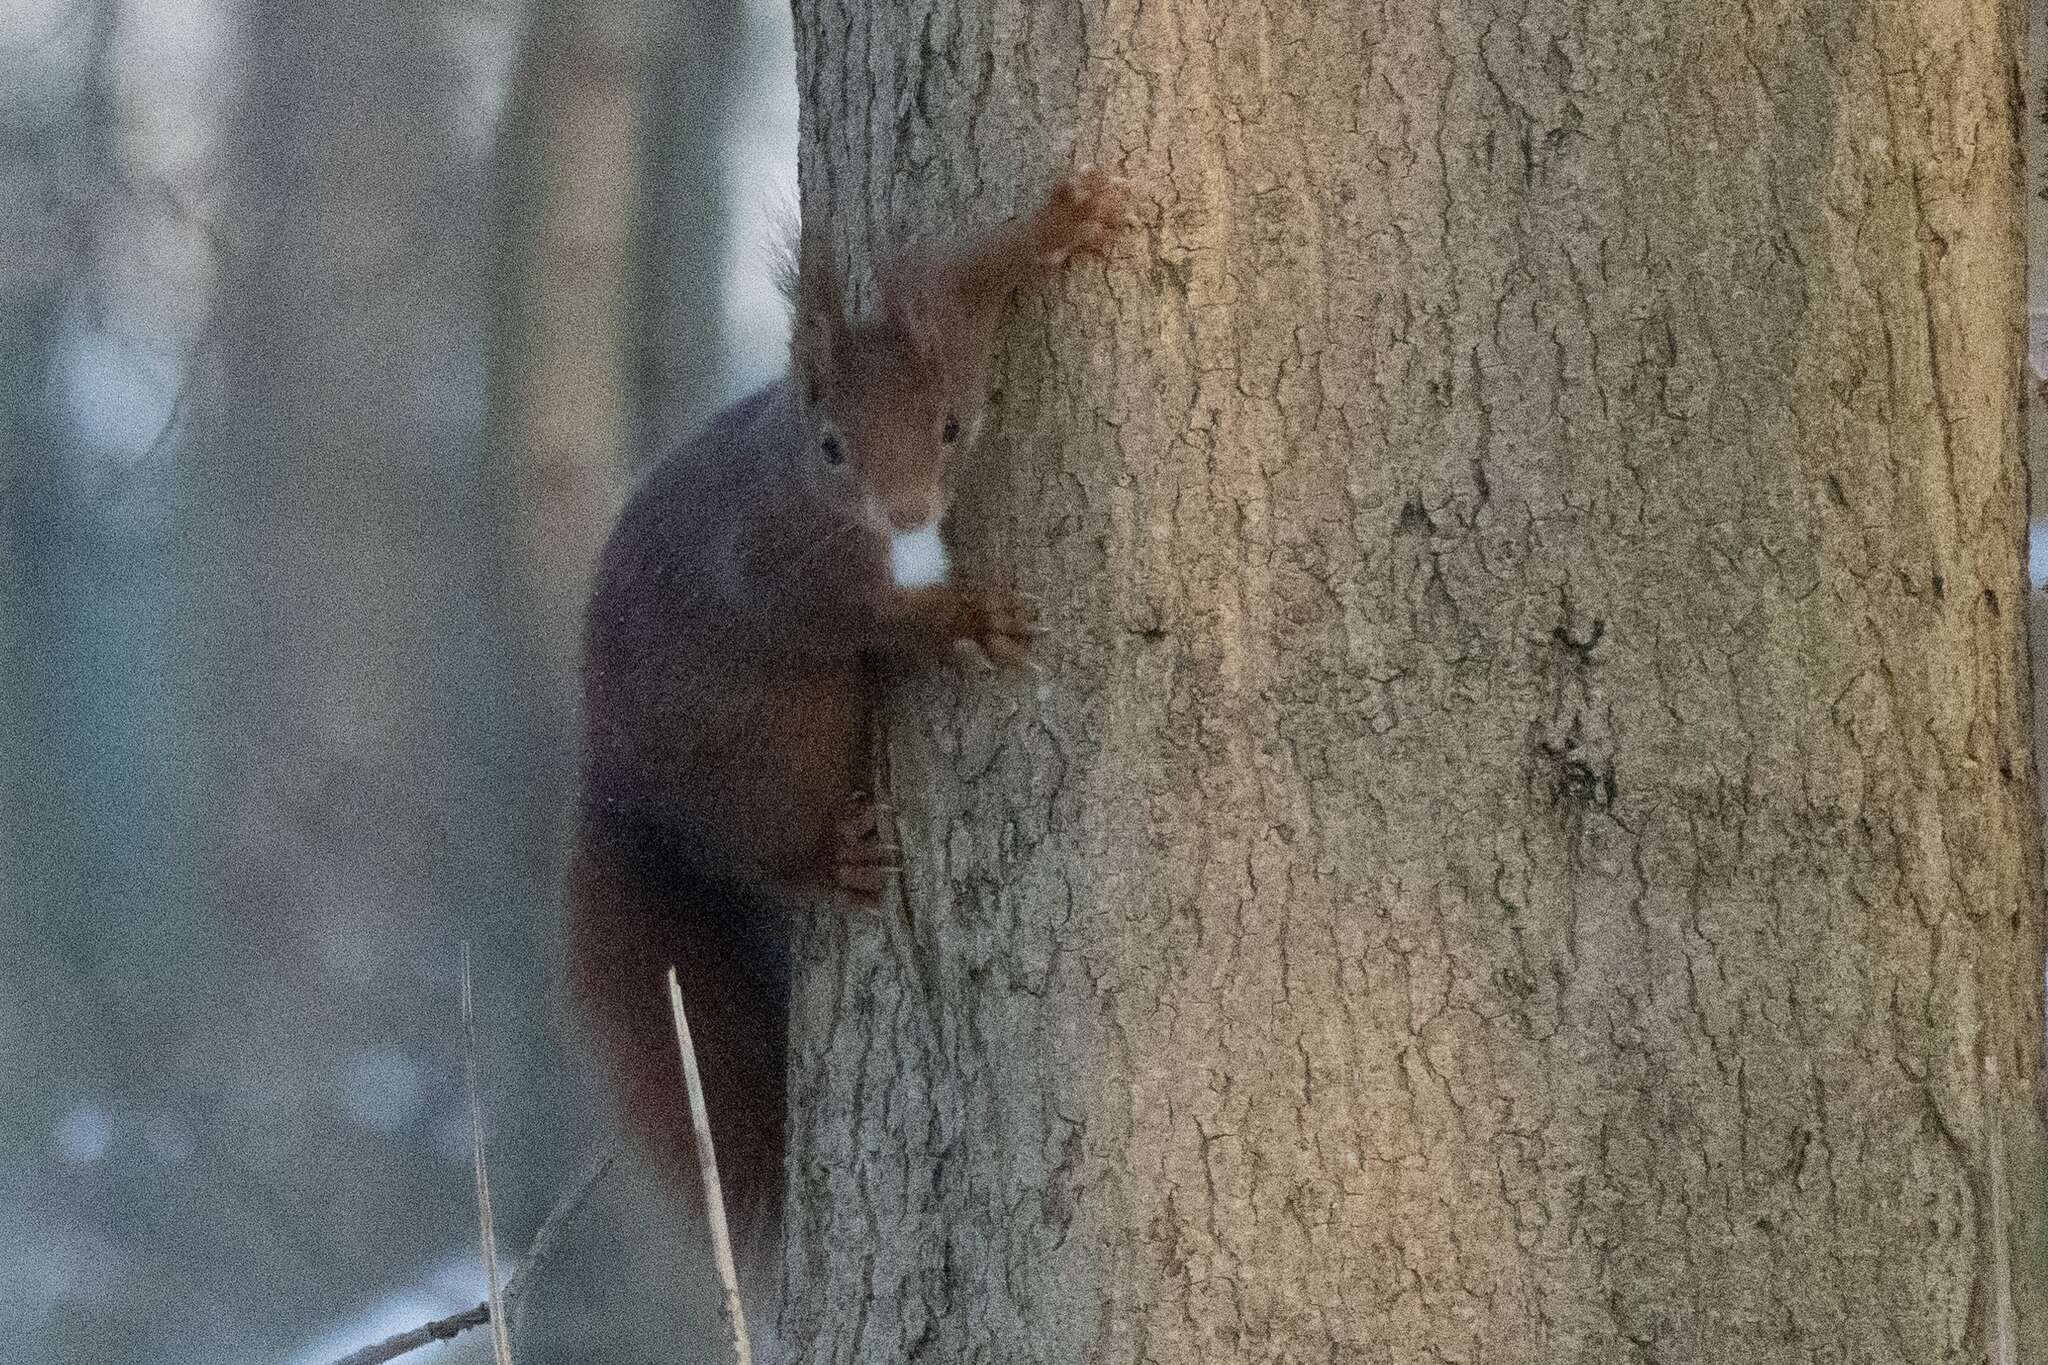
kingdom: Animalia
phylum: Chordata
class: Mammalia
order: Rodentia
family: Sciuridae
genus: Sciurus
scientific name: Sciurus vulgaris
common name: Eurasian red squirrel
